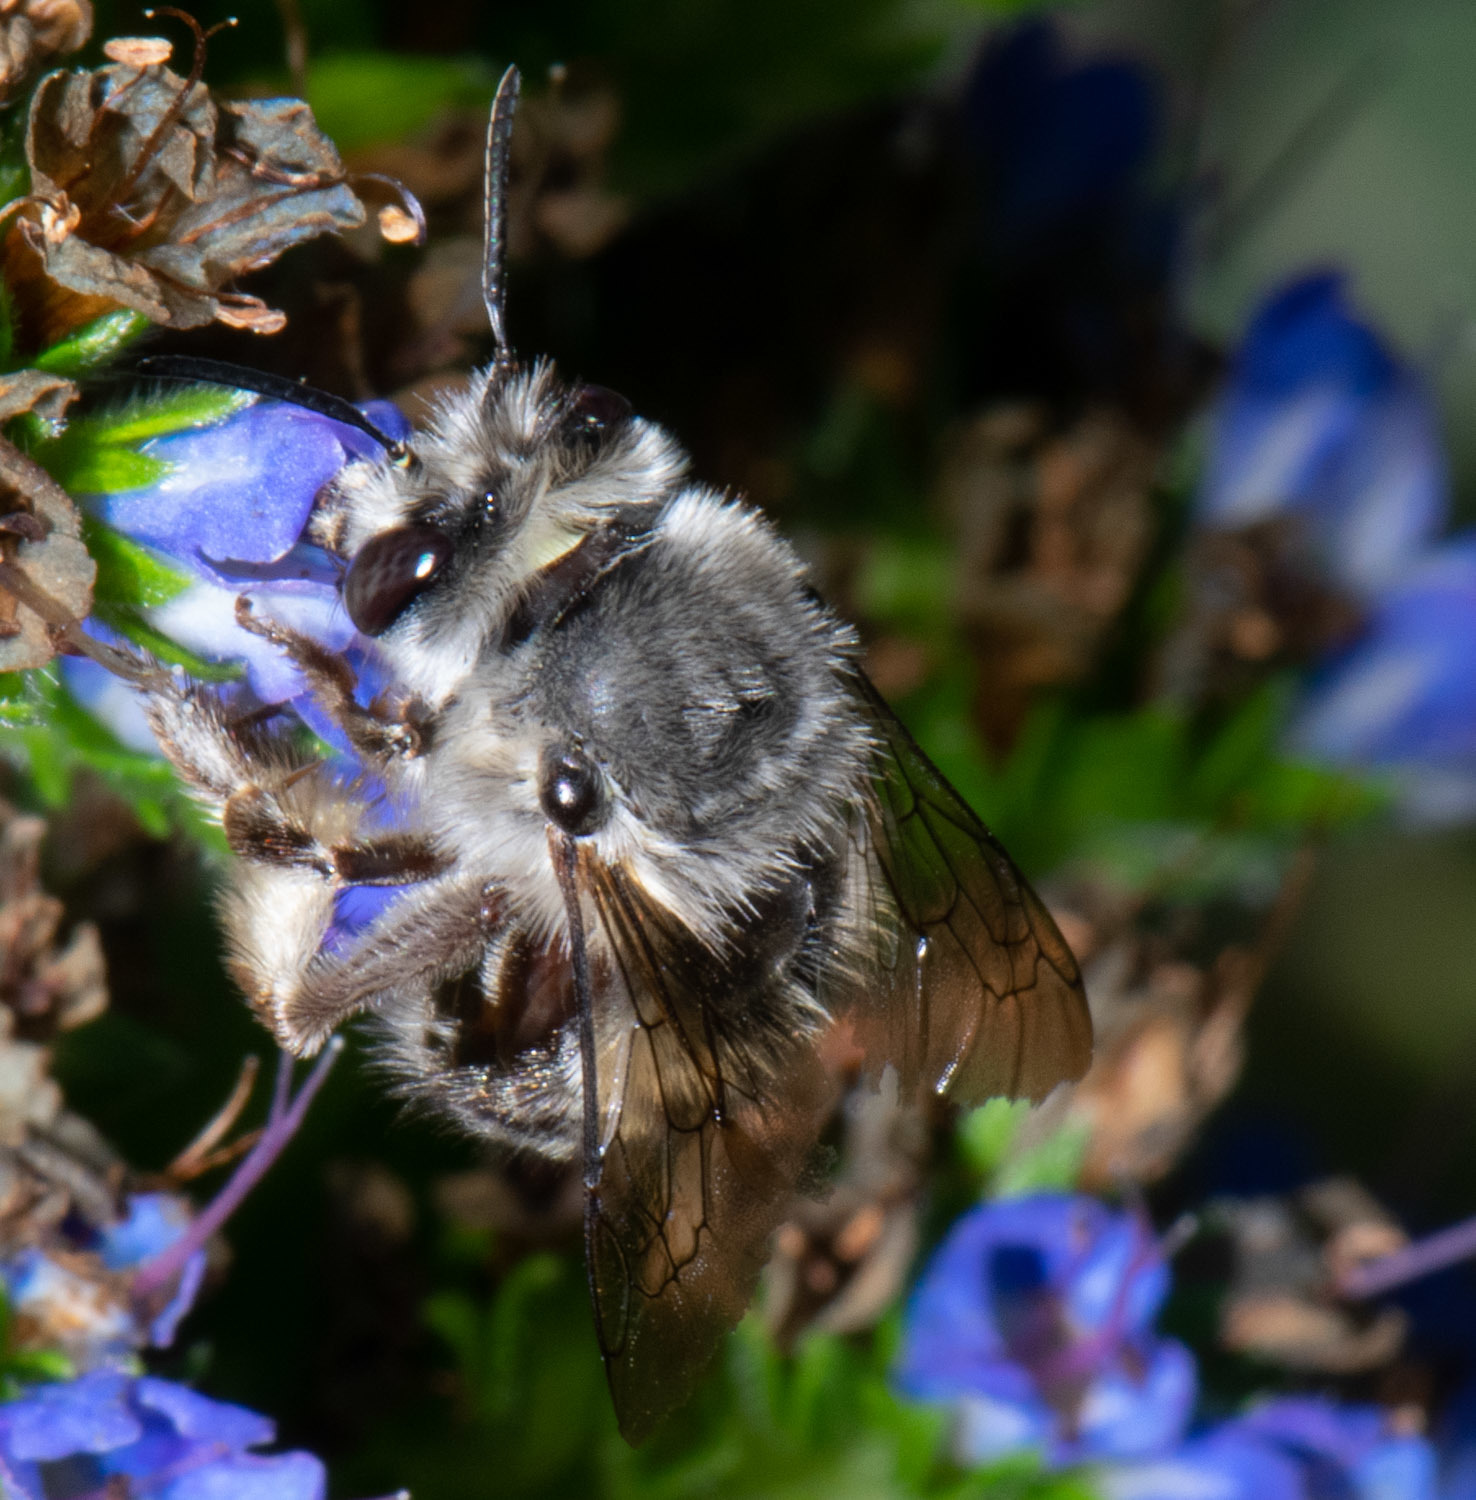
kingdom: Animalia
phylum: Arthropoda
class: Insecta
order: Hymenoptera
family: Apidae
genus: Habropoda
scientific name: Habropoda depressa
